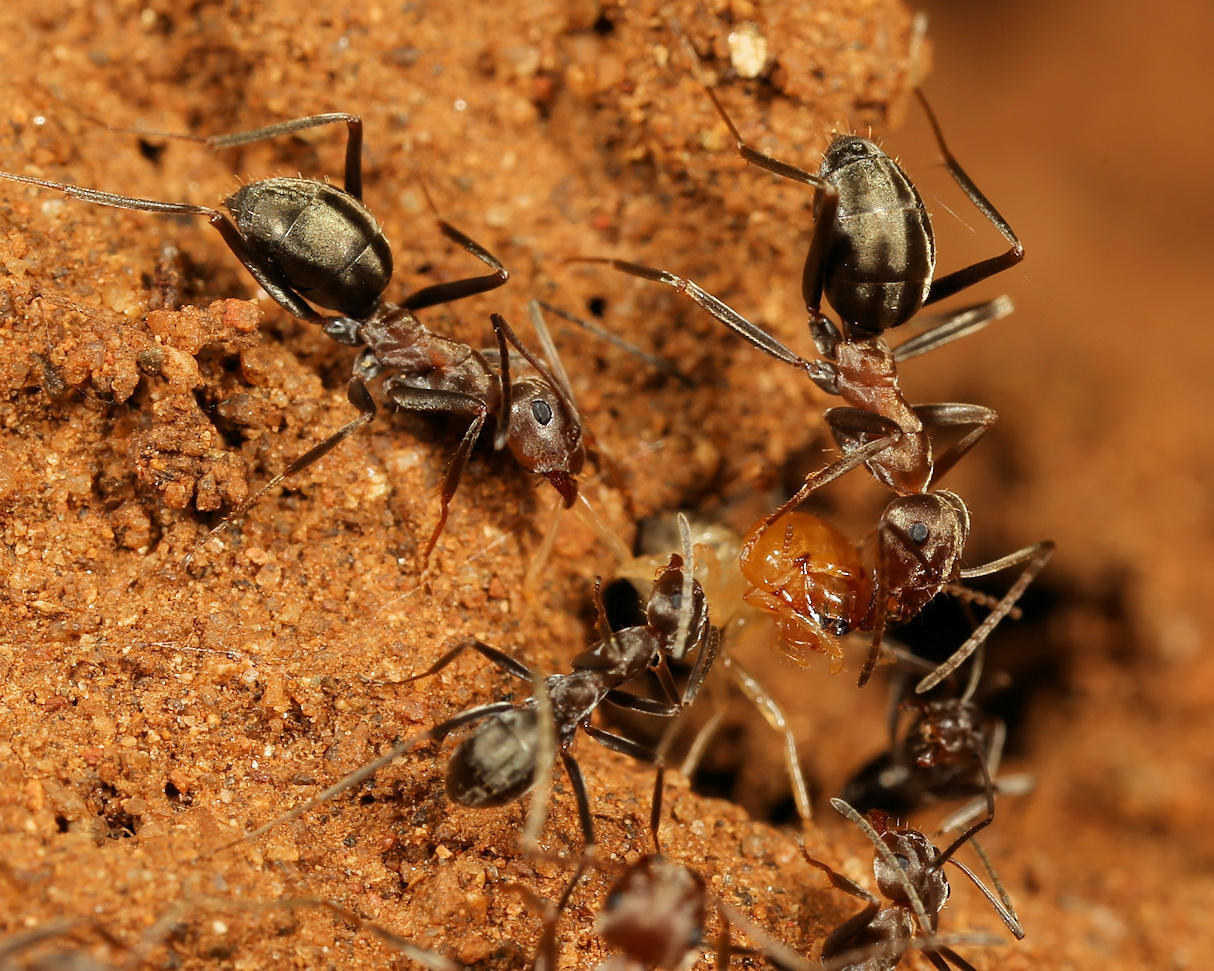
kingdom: Animalia
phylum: Arthropoda
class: Insecta
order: Hymenoptera
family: Formicidae
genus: Anoplolepis
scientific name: Anoplolepis custodiens
